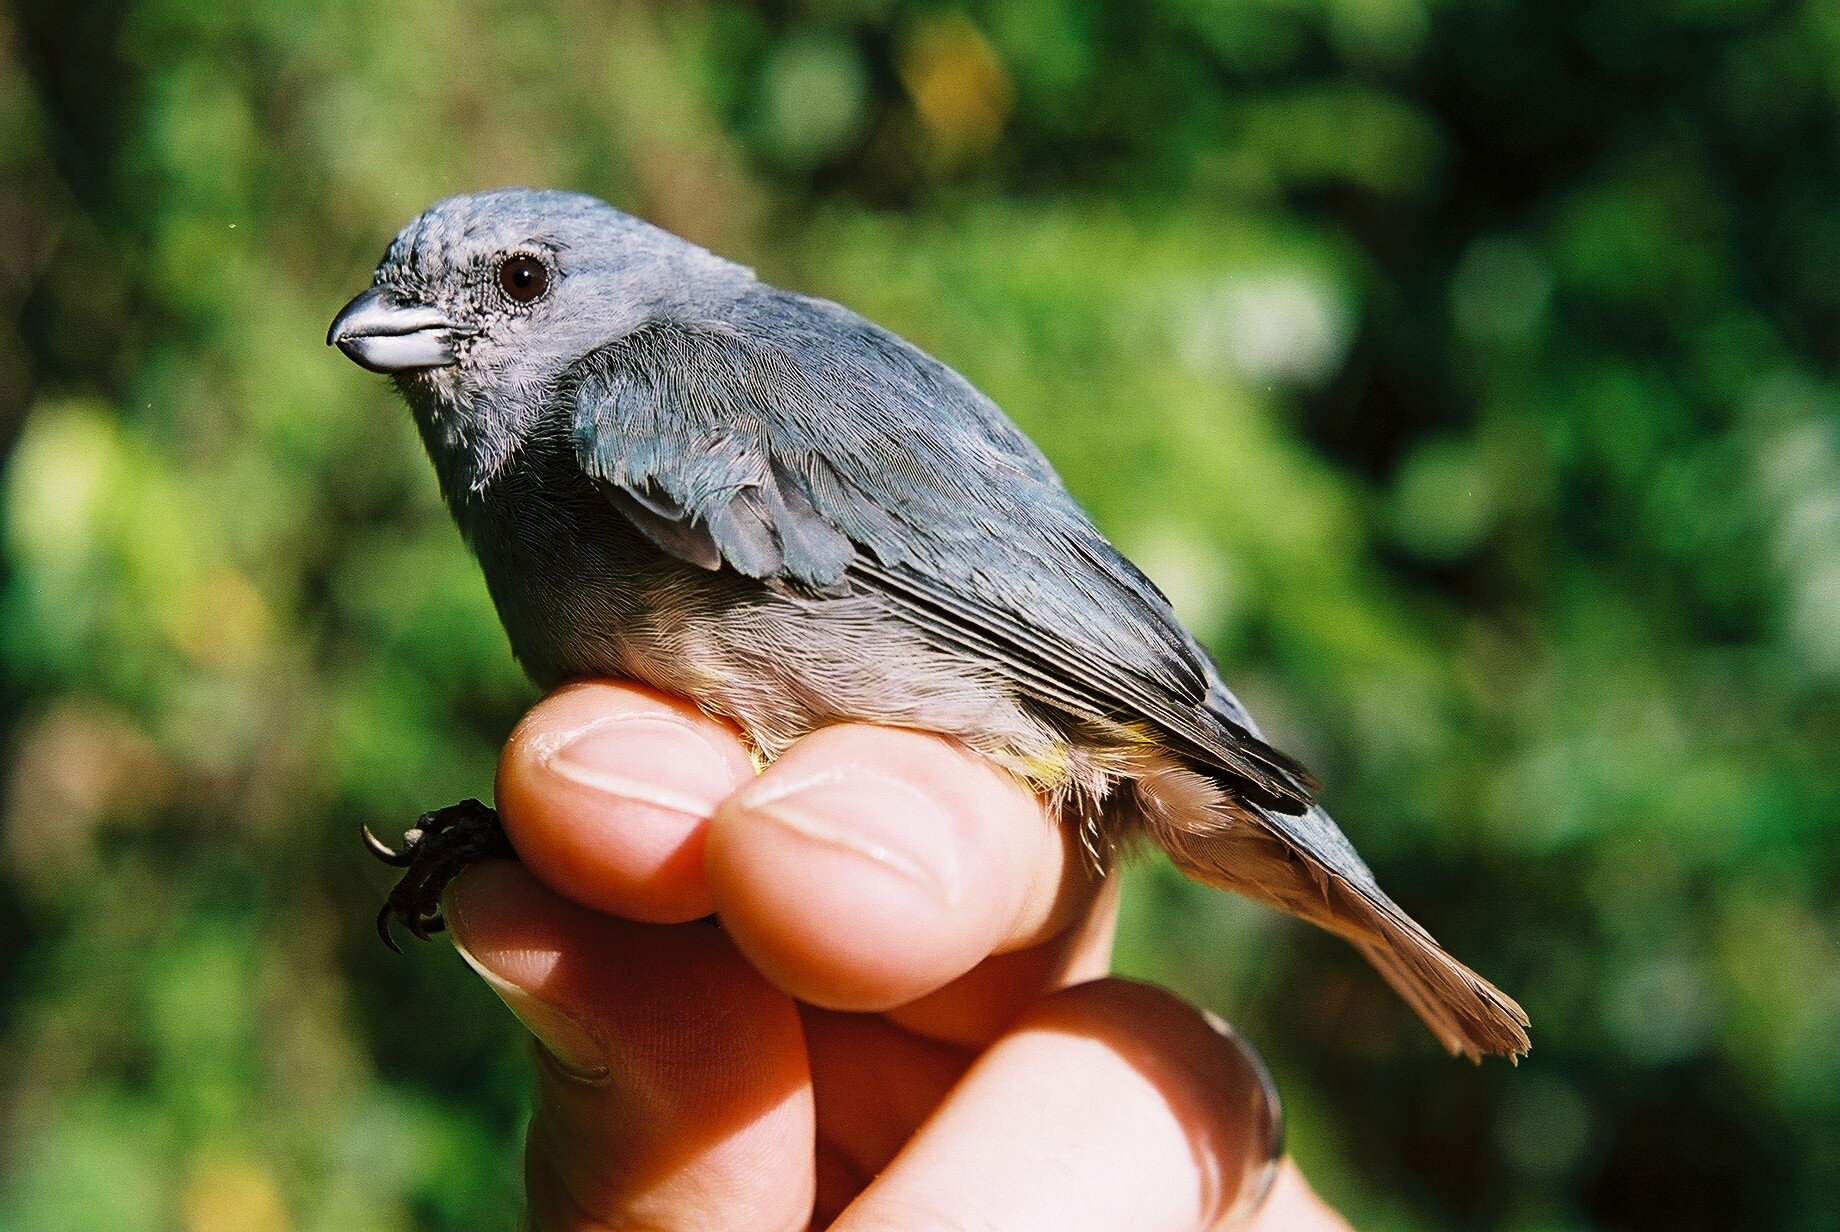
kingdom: Animalia
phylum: Chordata
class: Aves
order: Passeriformes
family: Fringillidae
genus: Euphonia
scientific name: Euphonia jamaica
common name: Jamaican euphonia
